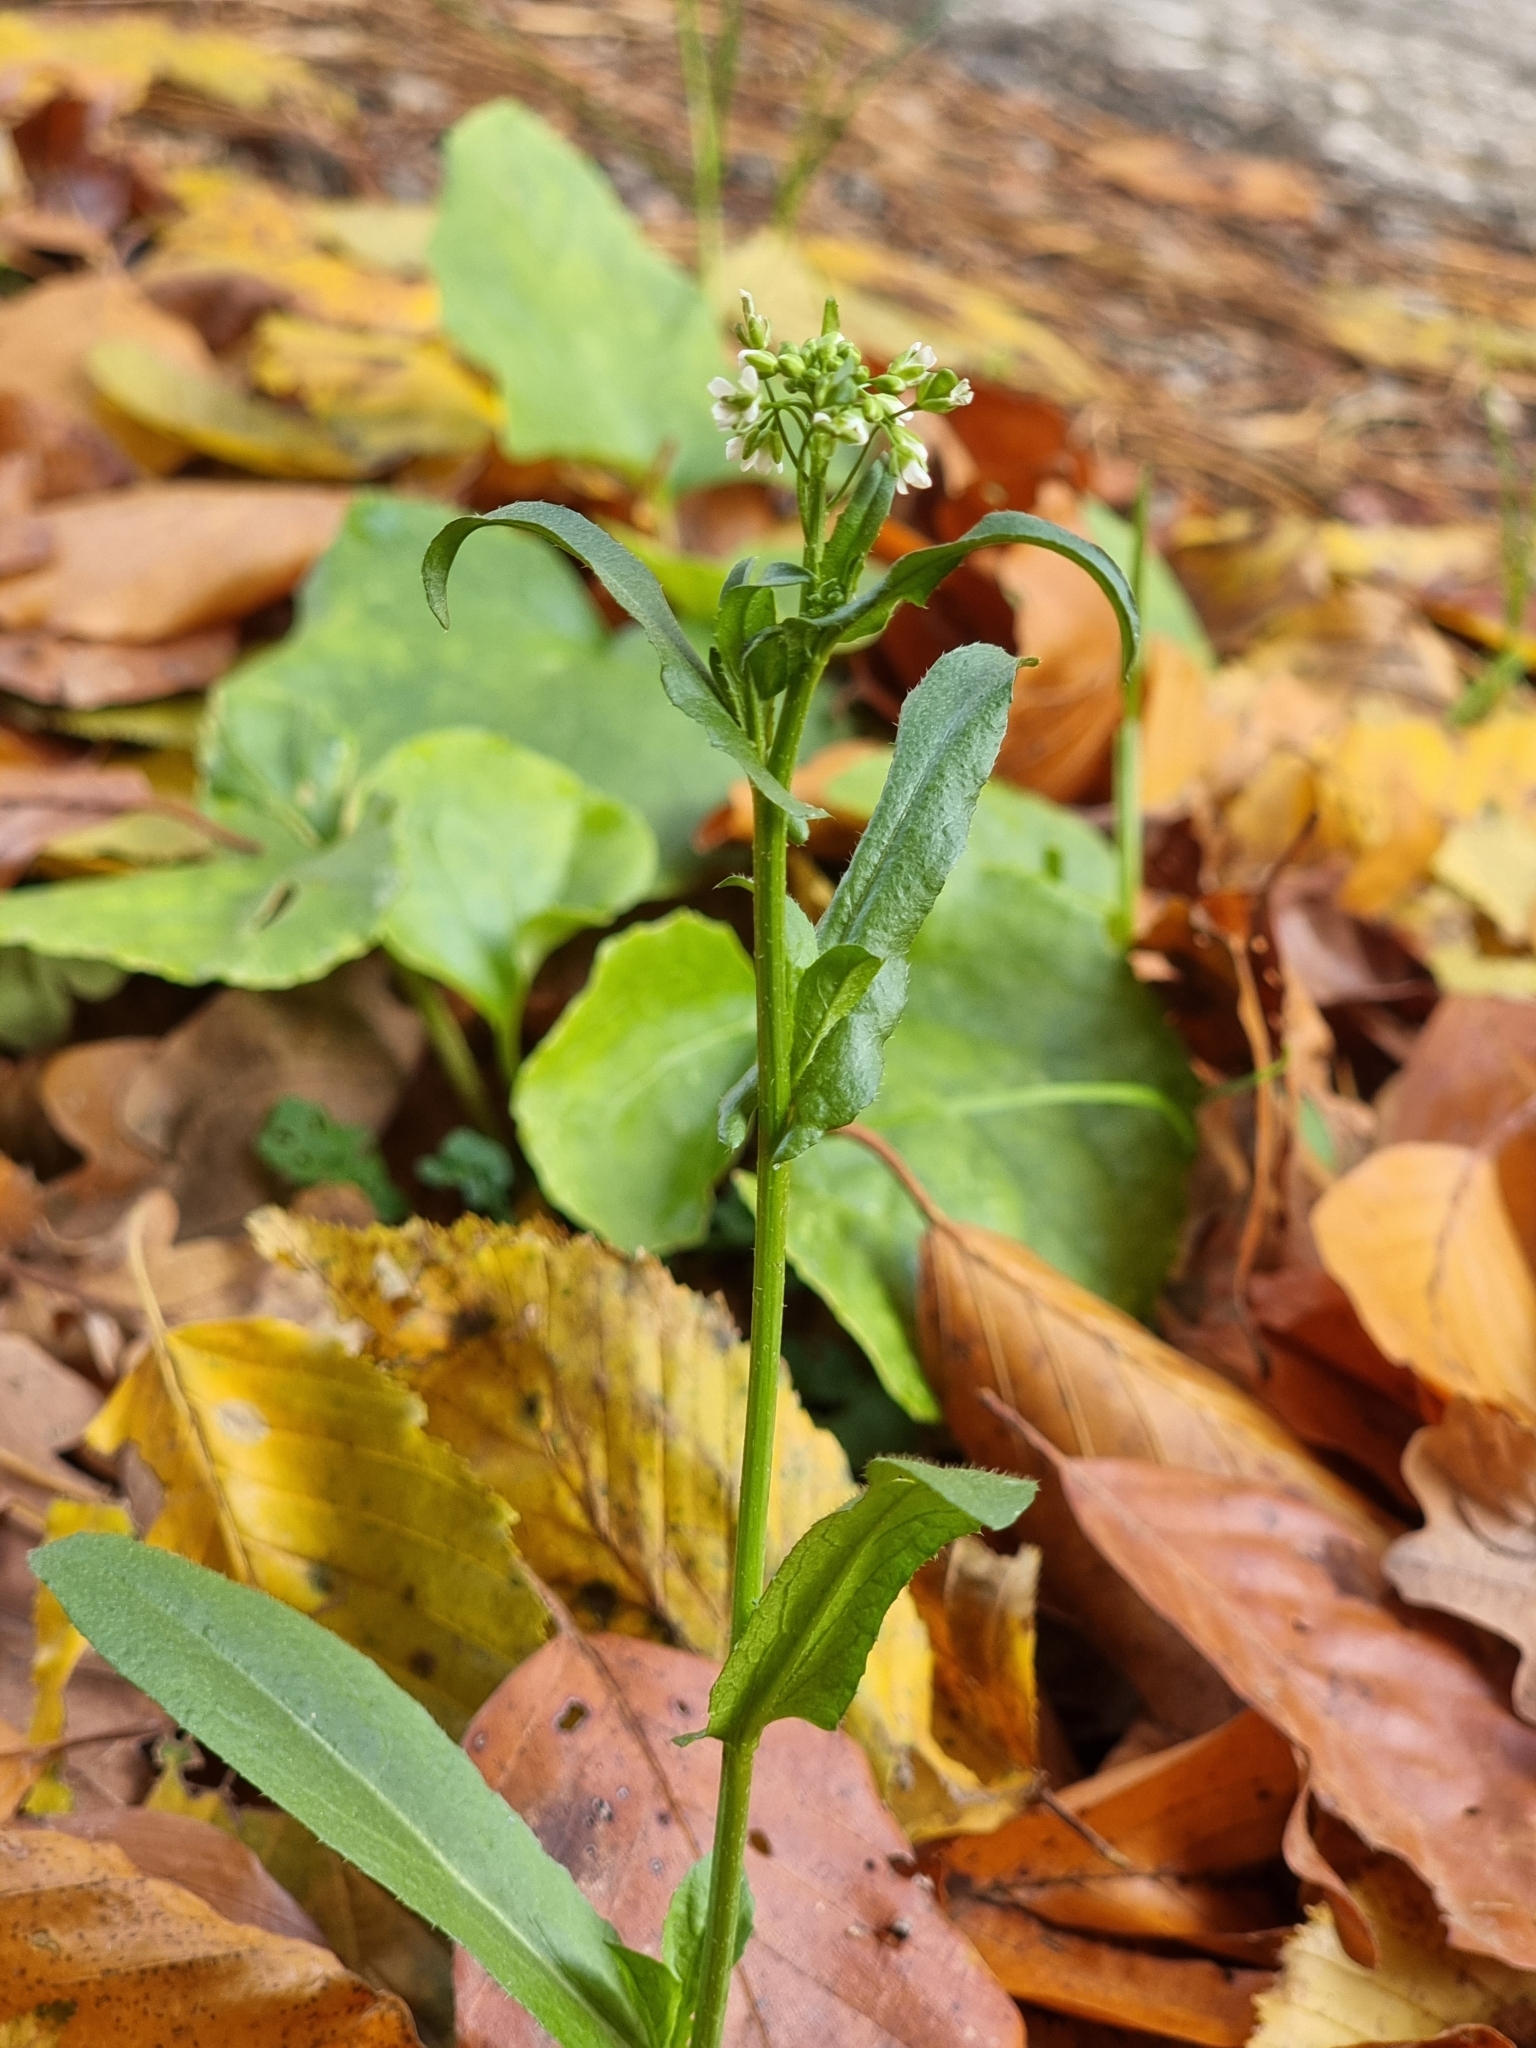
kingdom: Plantae
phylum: Tracheophyta
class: Magnoliopsida
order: Brassicales
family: Brassicaceae
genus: Capsella
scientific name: Capsella bursa-pastoris
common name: Shepherd's purse
